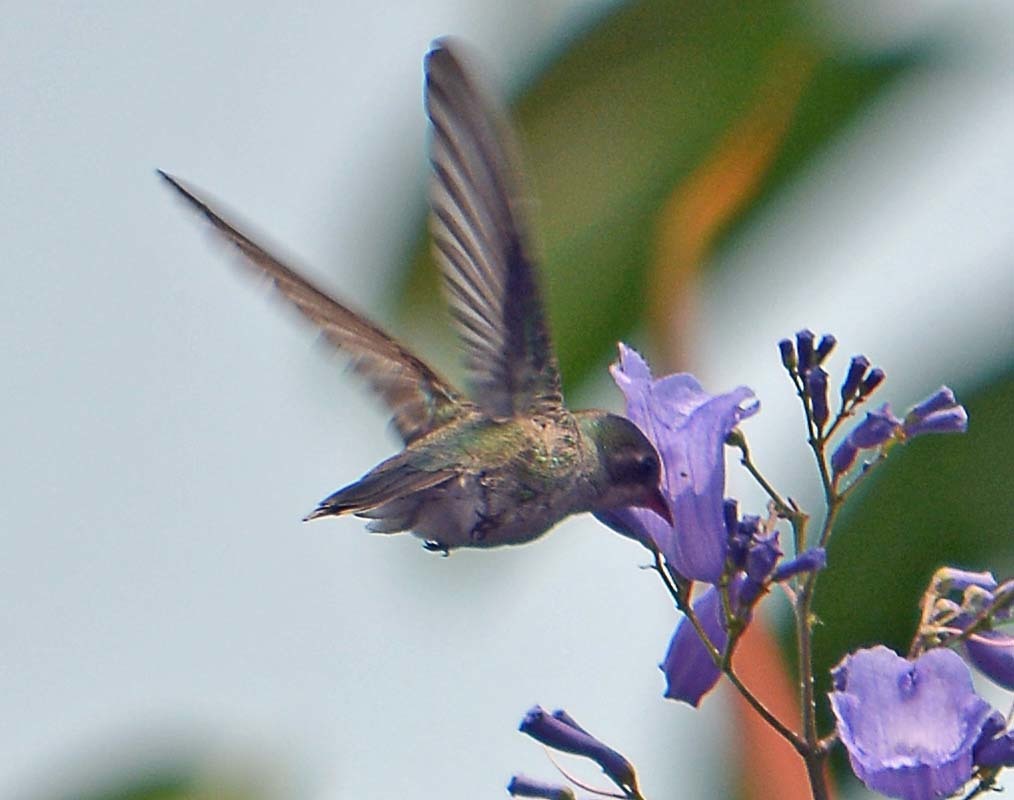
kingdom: Animalia
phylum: Chordata
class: Aves
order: Apodiformes
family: Trochilidae
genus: Cynanthus
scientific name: Cynanthus latirostris
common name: Broad-billed hummingbird
